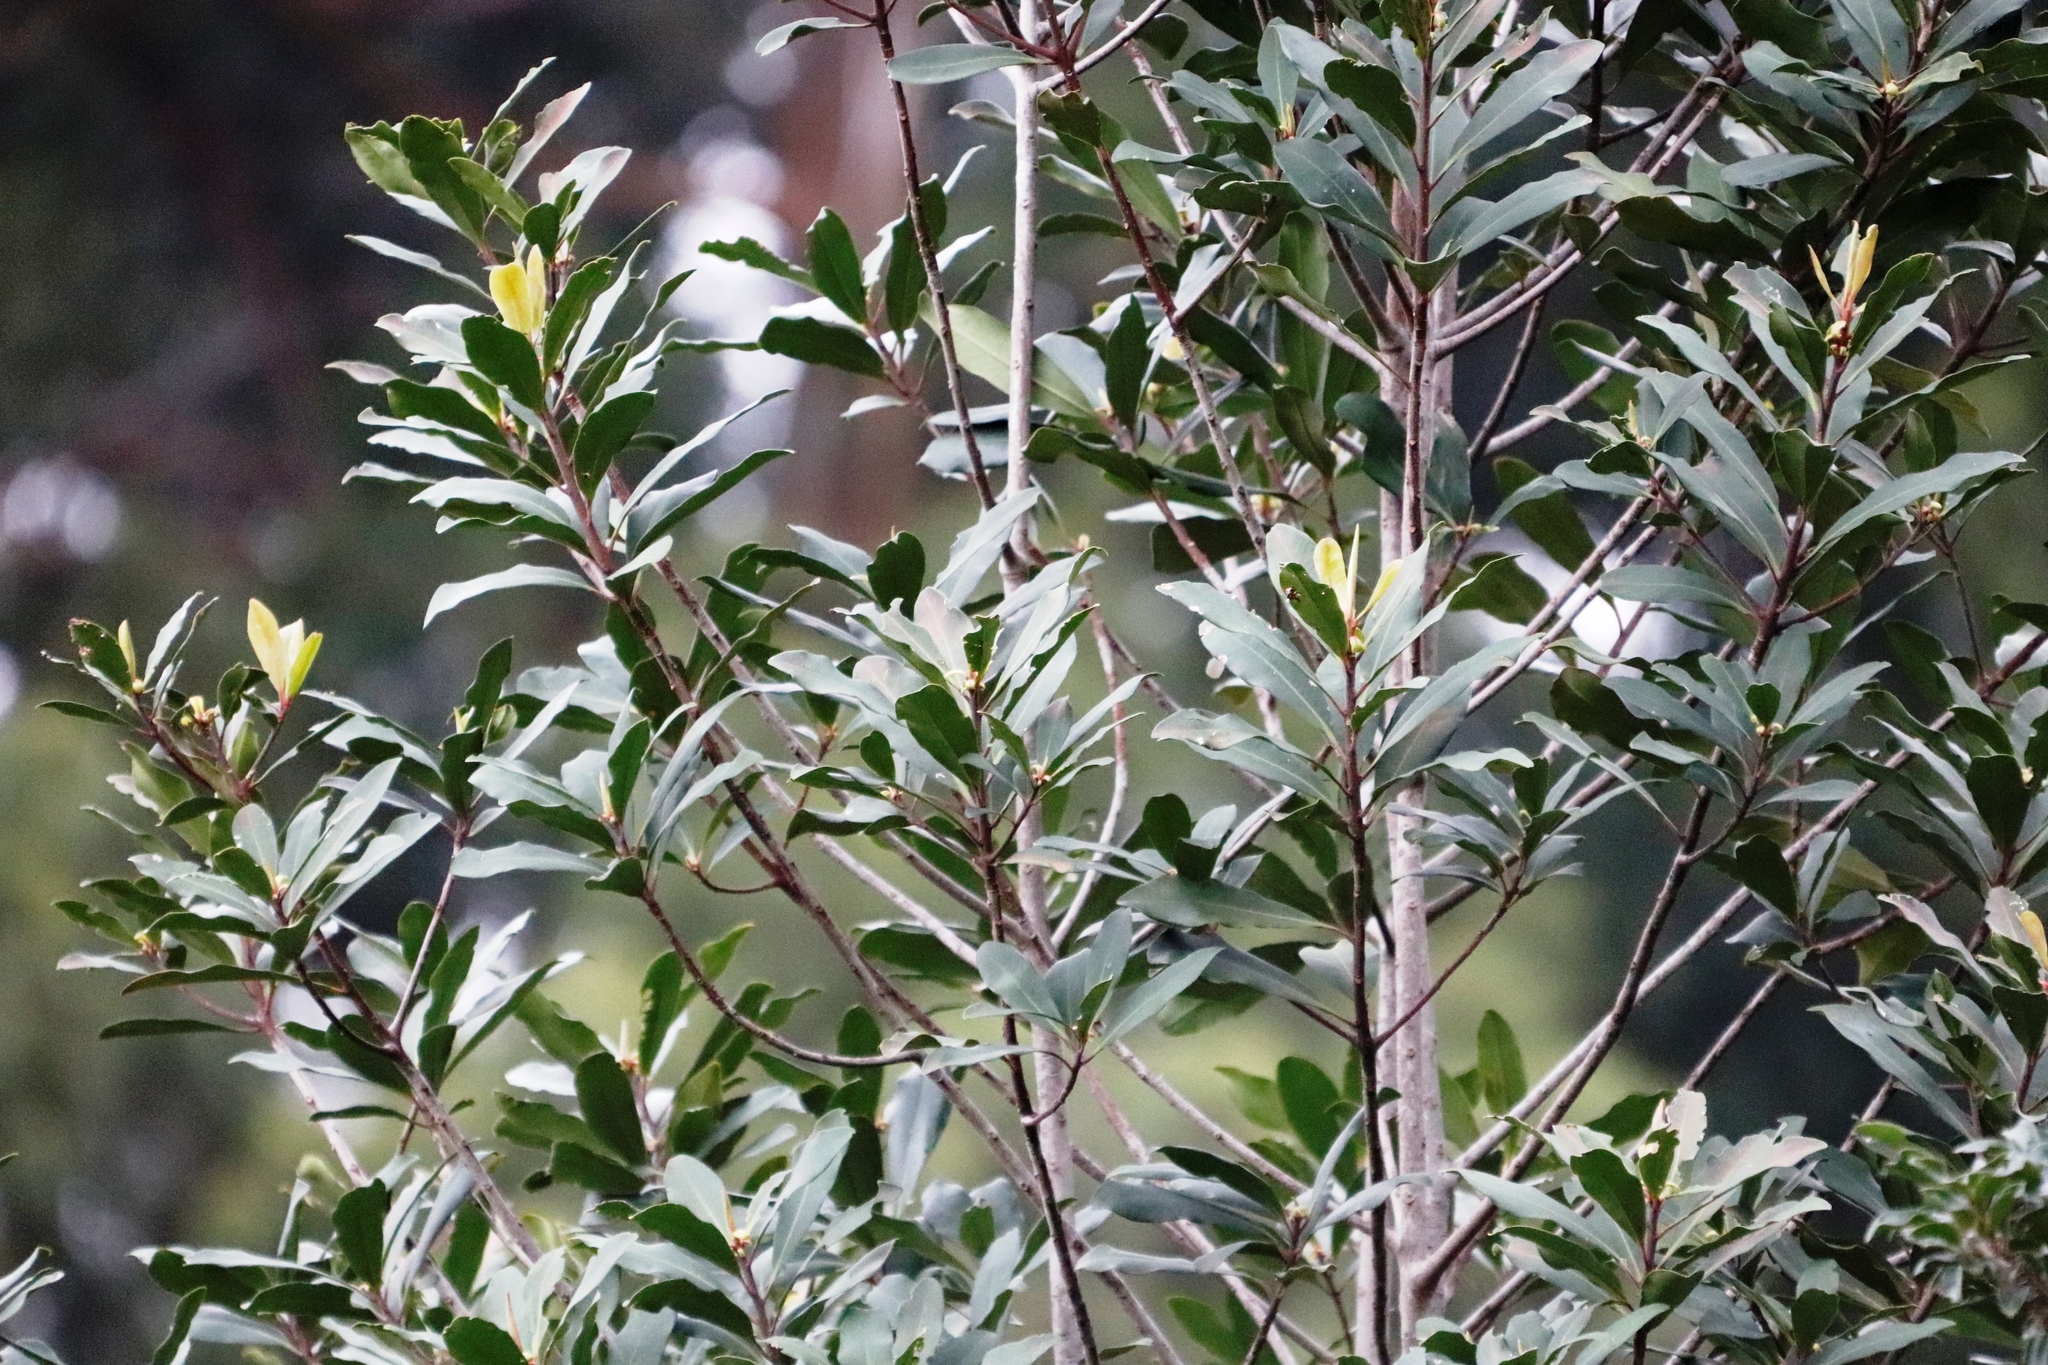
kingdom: Plantae
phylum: Tracheophyta
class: Magnoliopsida
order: Ericales
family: Primulaceae
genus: Myrsine
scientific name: Myrsine melanophloeos
